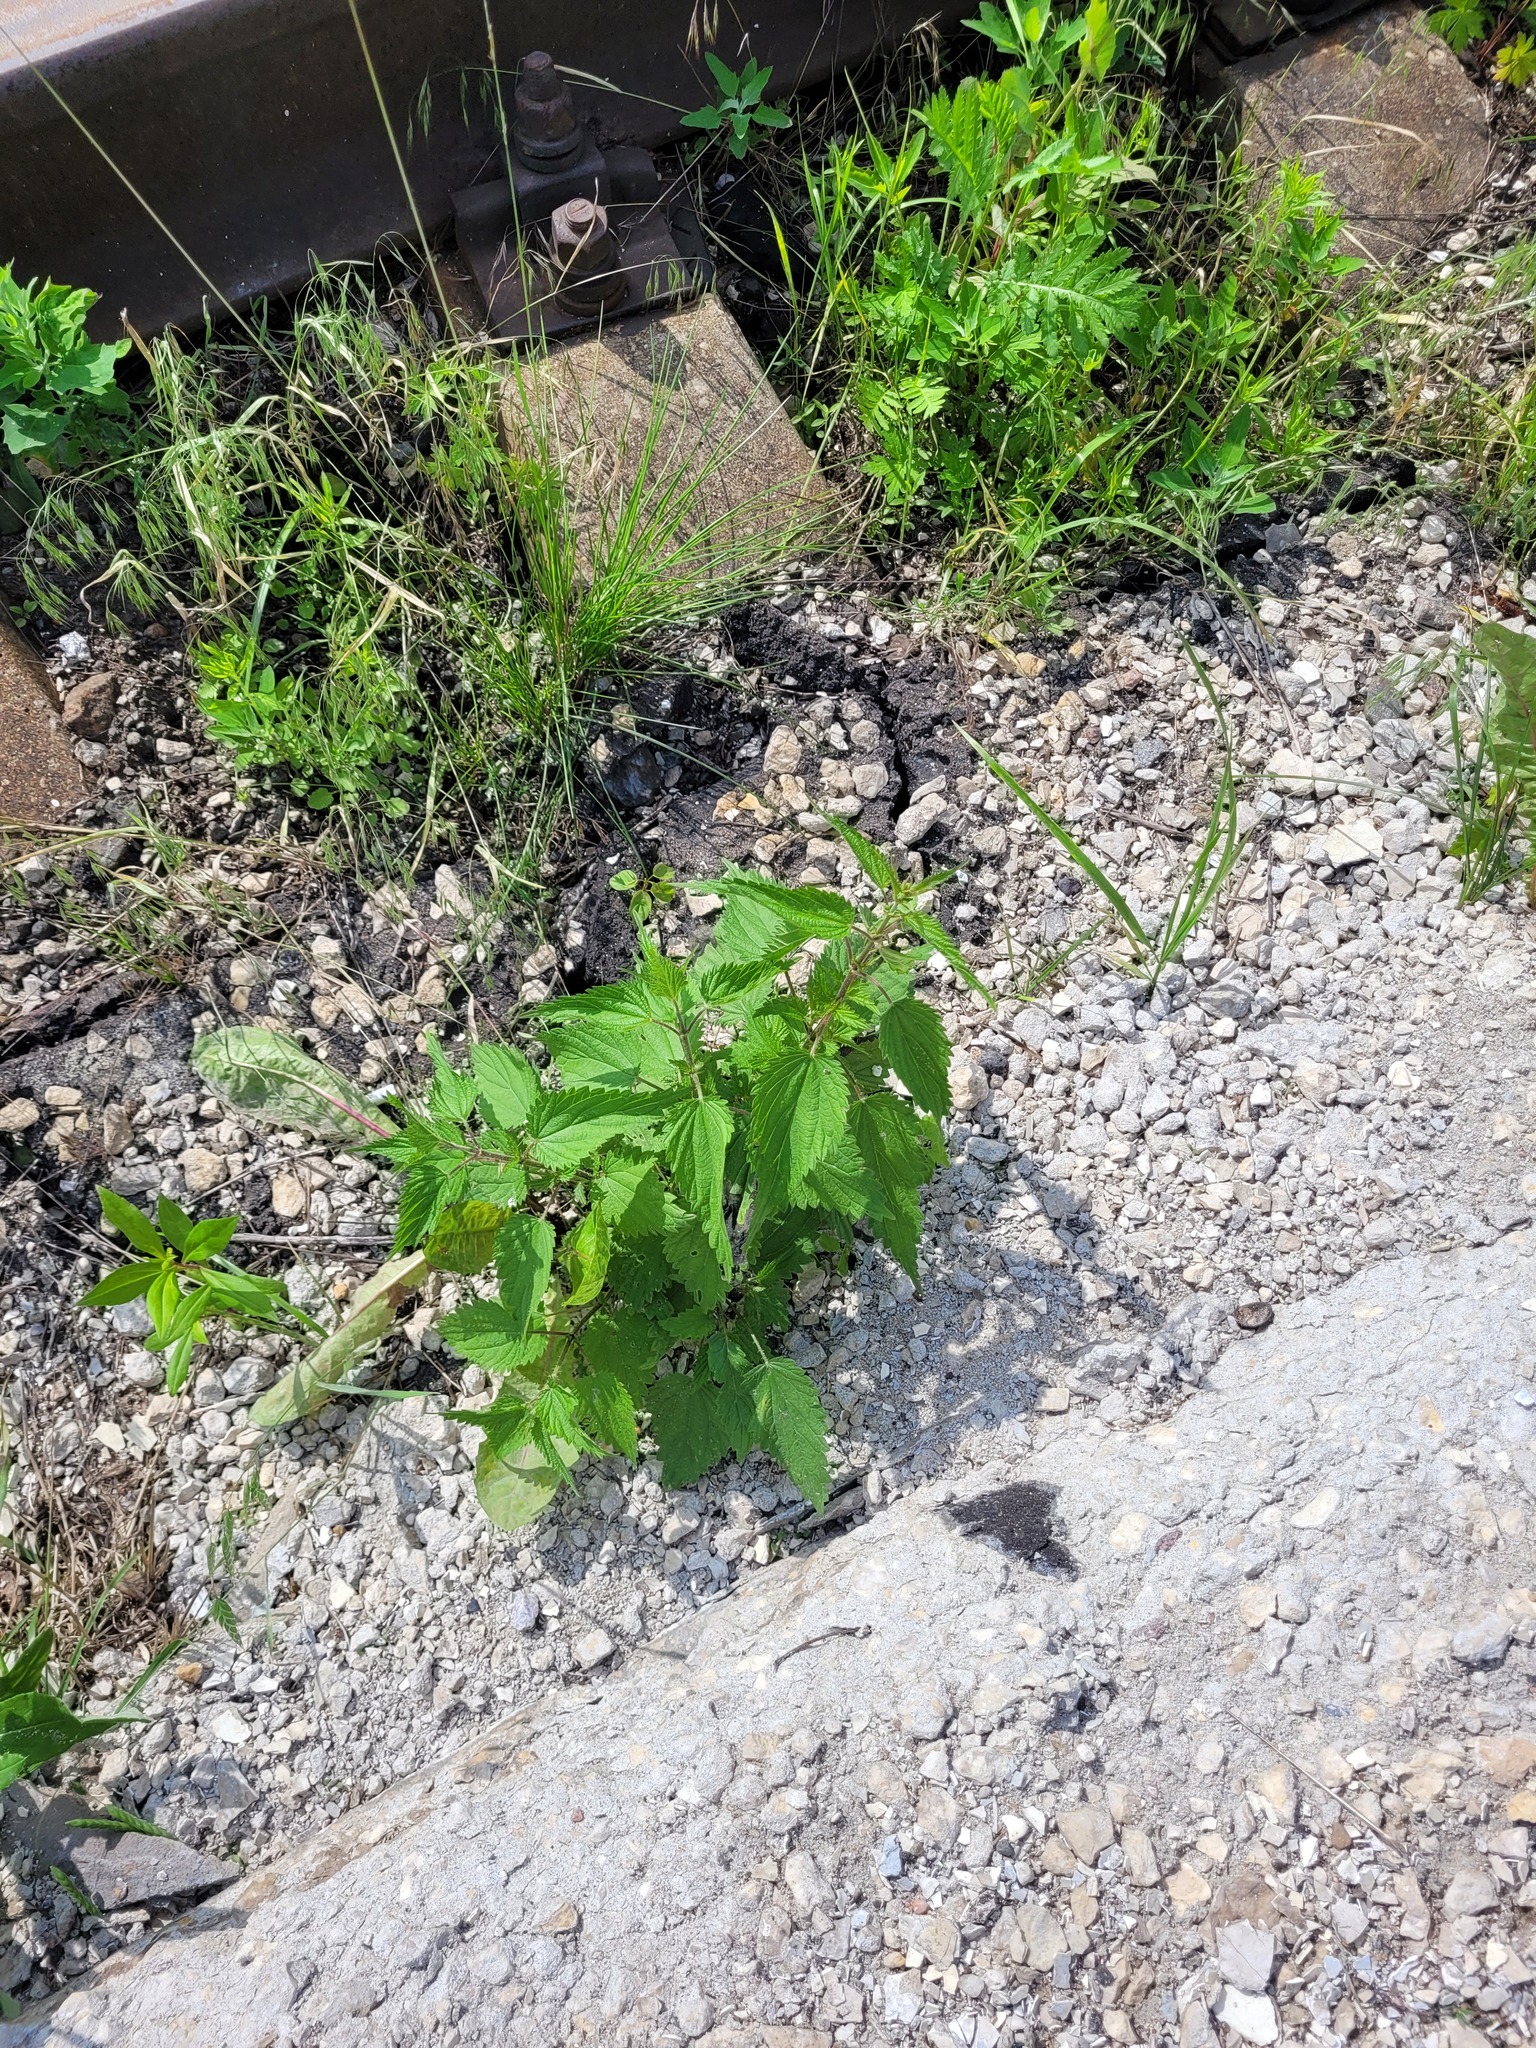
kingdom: Plantae
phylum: Tracheophyta
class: Magnoliopsida
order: Rosales
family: Urticaceae
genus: Urtica
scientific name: Urtica dioica
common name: Common nettle
